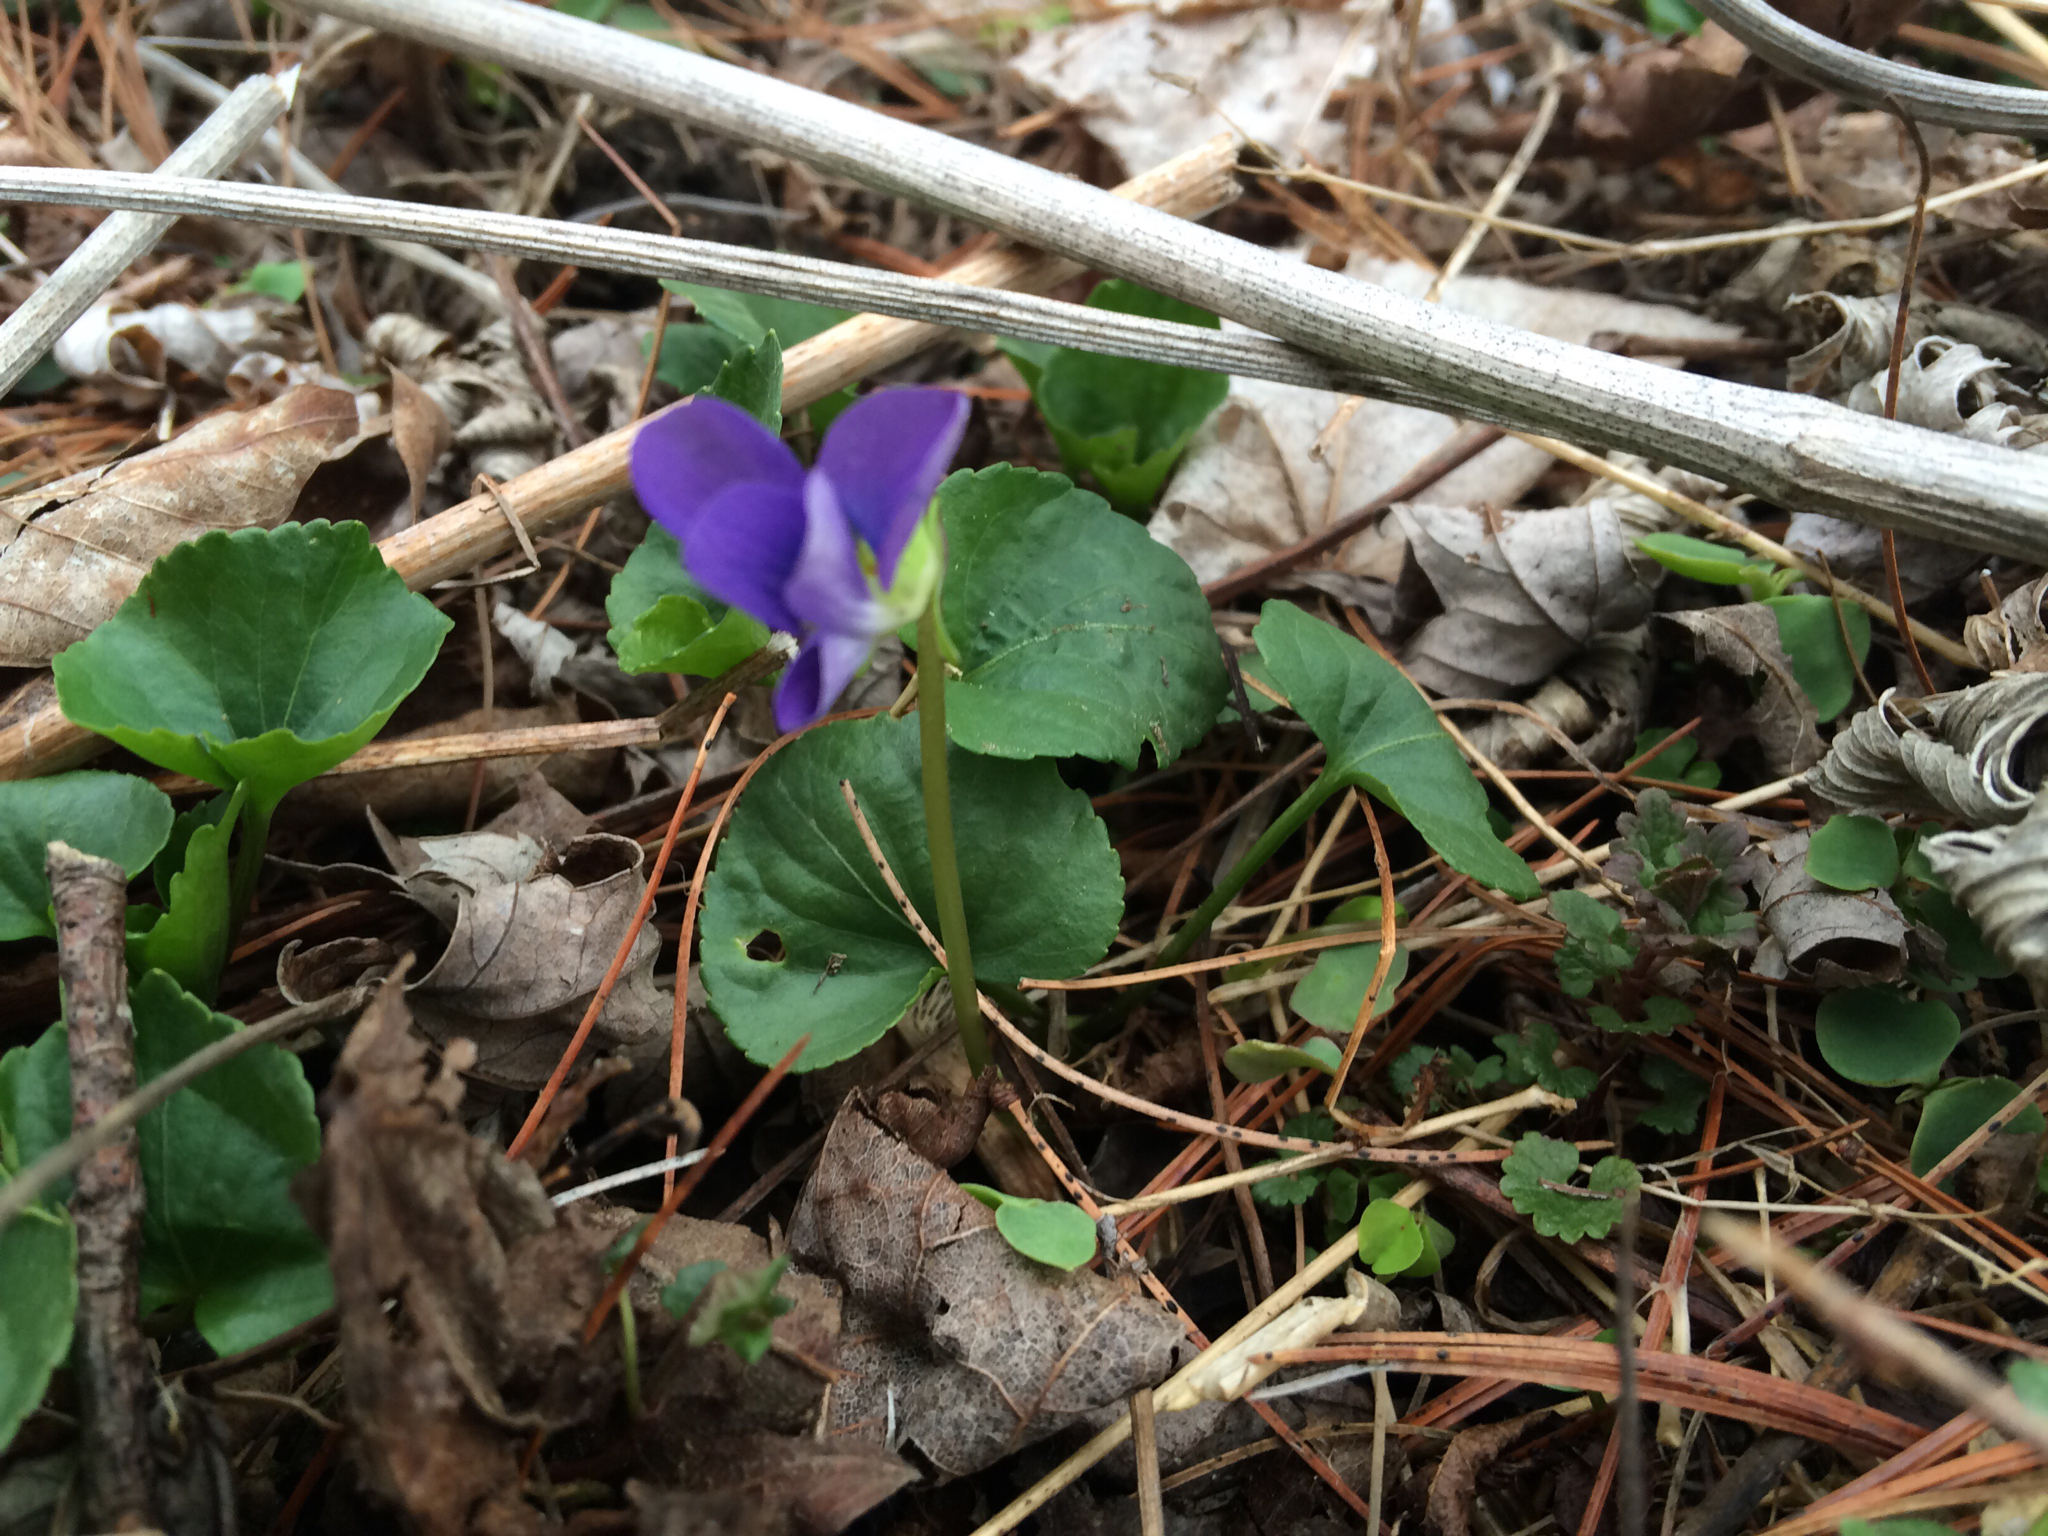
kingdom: Plantae
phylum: Tracheophyta
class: Magnoliopsida
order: Malpighiales
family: Violaceae
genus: Viola
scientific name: Viola sororia
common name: Dooryard violet
